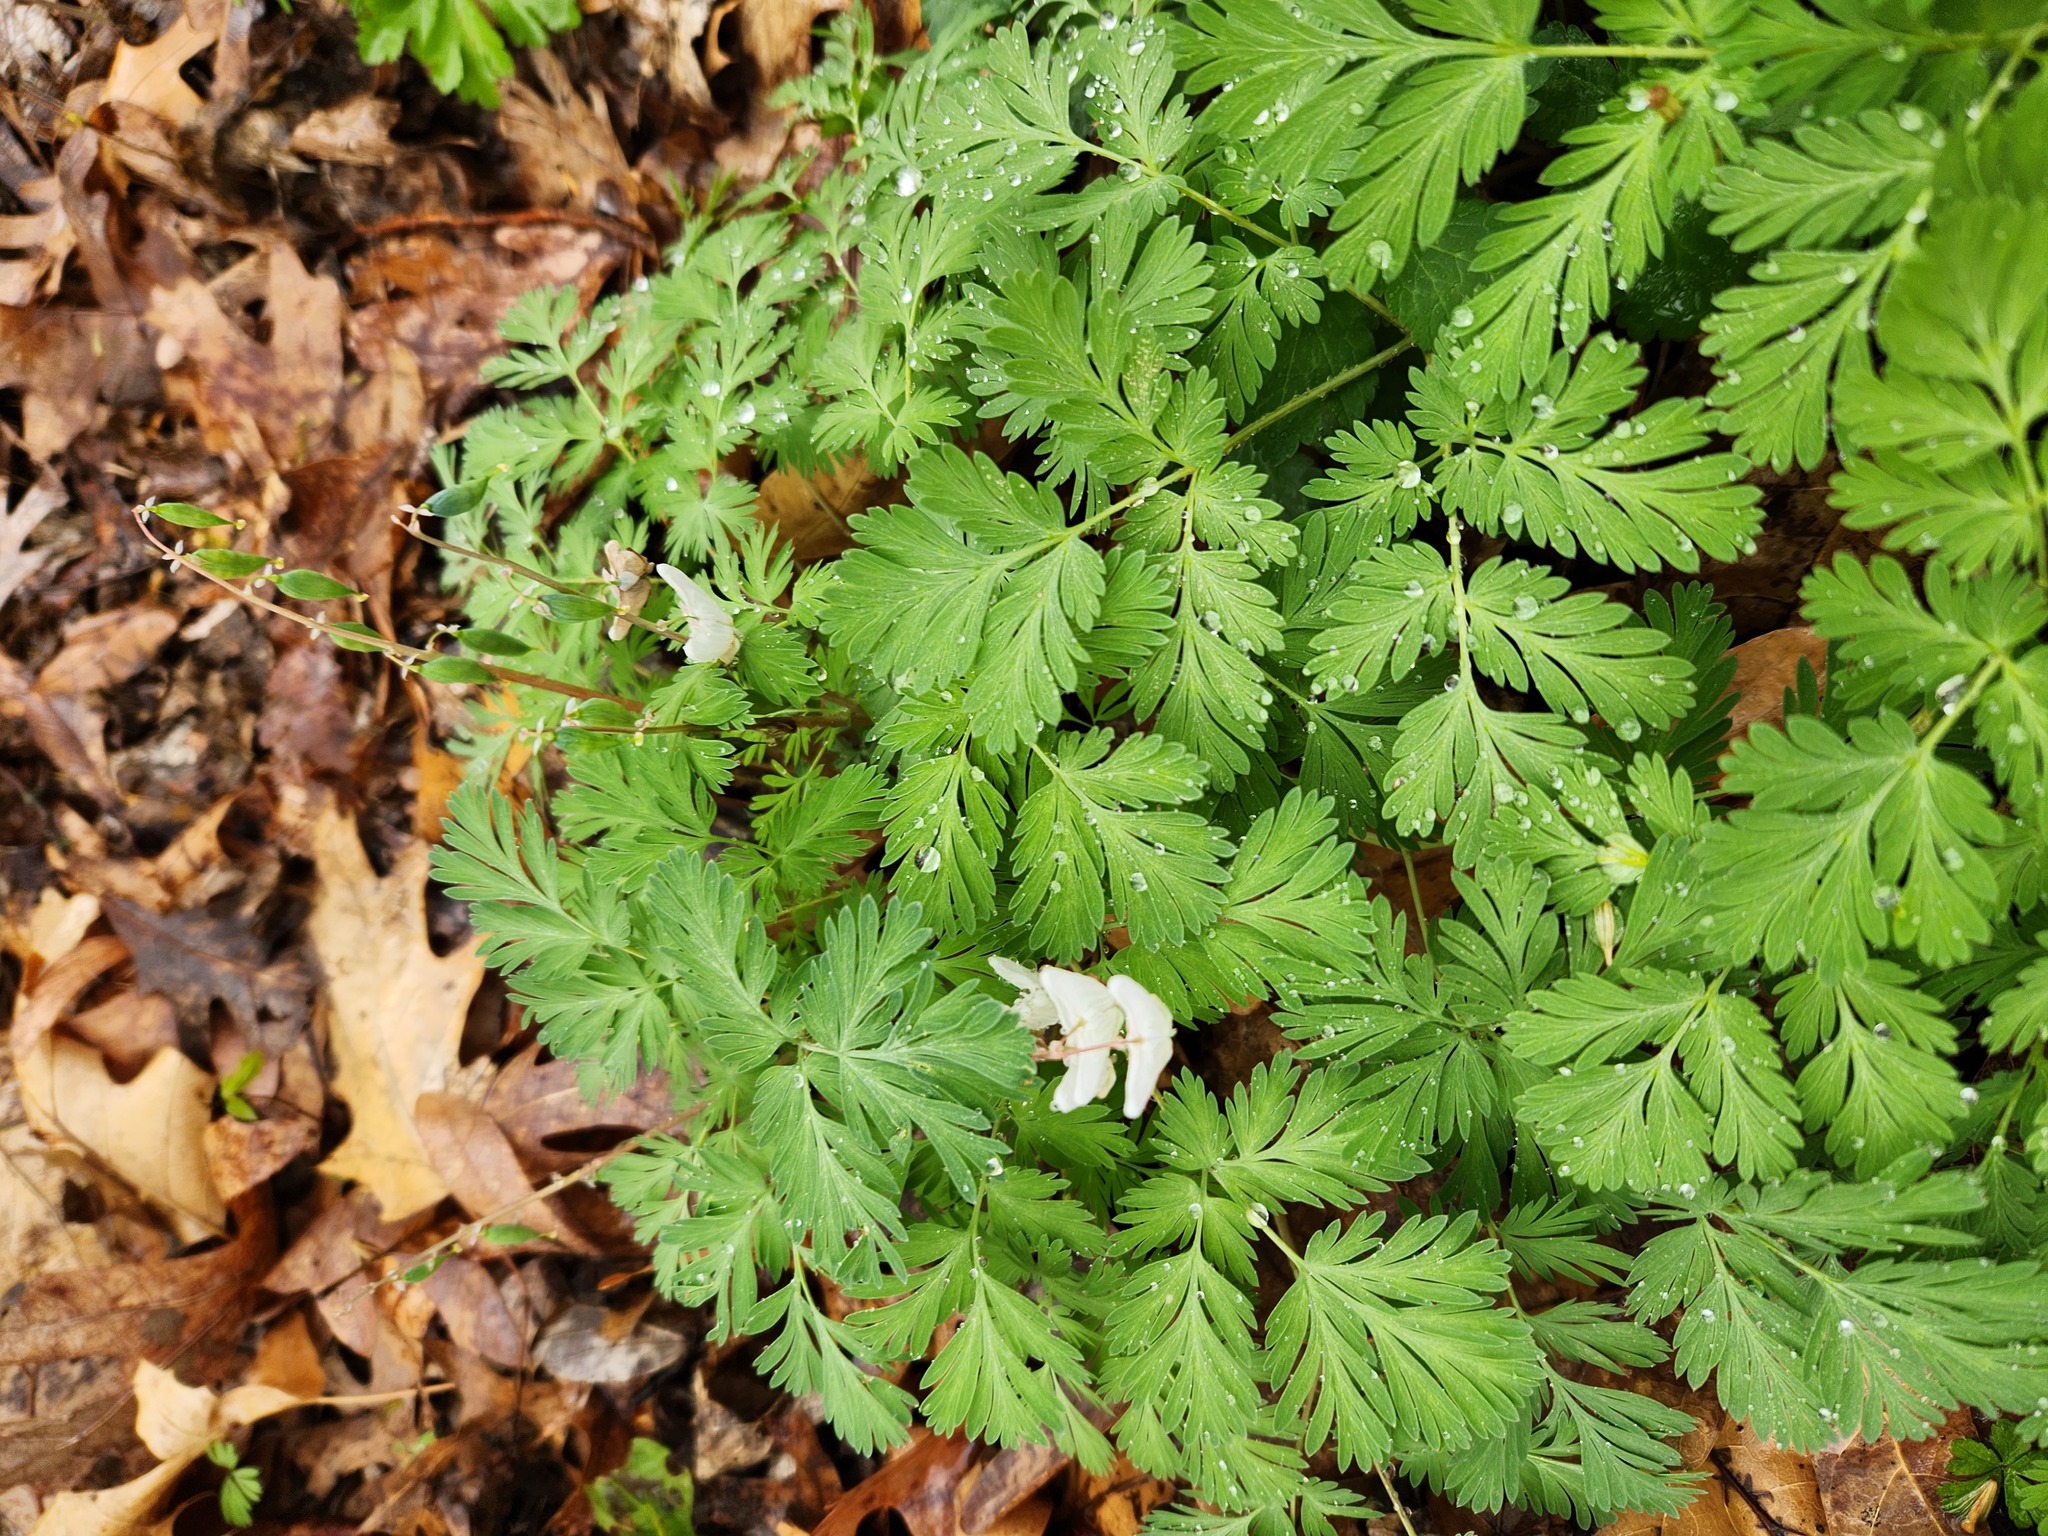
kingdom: Plantae
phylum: Tracheophyta
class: Magnoliopsida
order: Ranunculales
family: Papaveraceae
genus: Dicentra
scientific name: Dicentra cucullaria
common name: Dutchman's breeches
